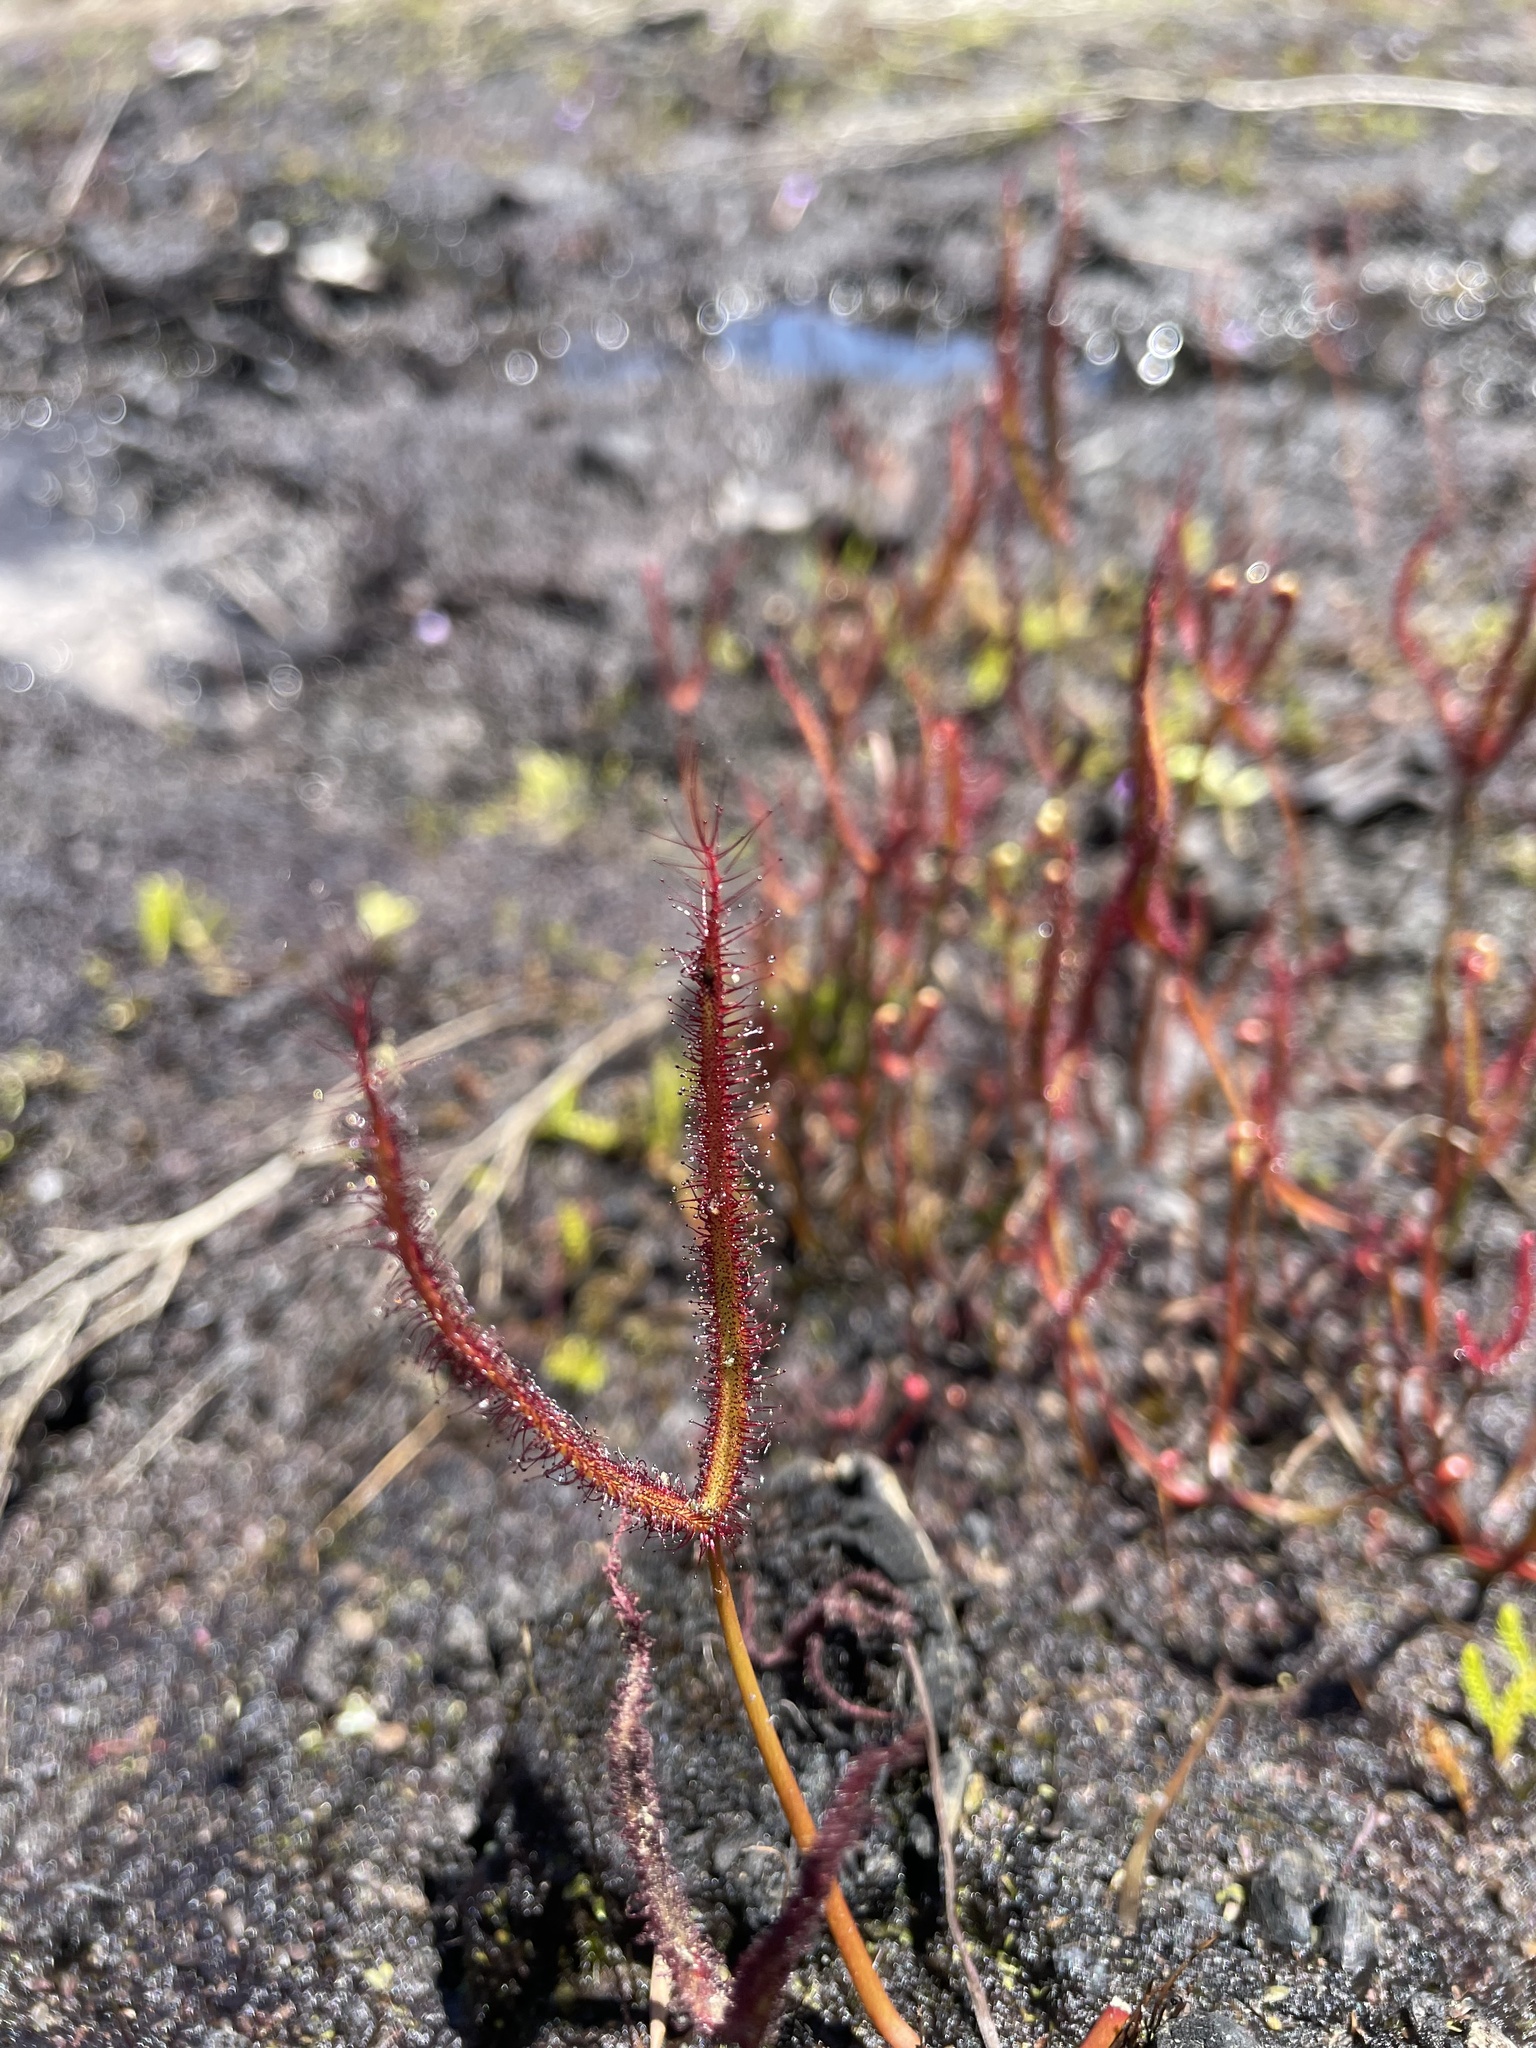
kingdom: Plantae
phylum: Tracheophyta
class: Magnoliopsida
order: Caryophyllales
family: Droseraceae
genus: Drosera
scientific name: Drosera binata
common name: Forked sundew
